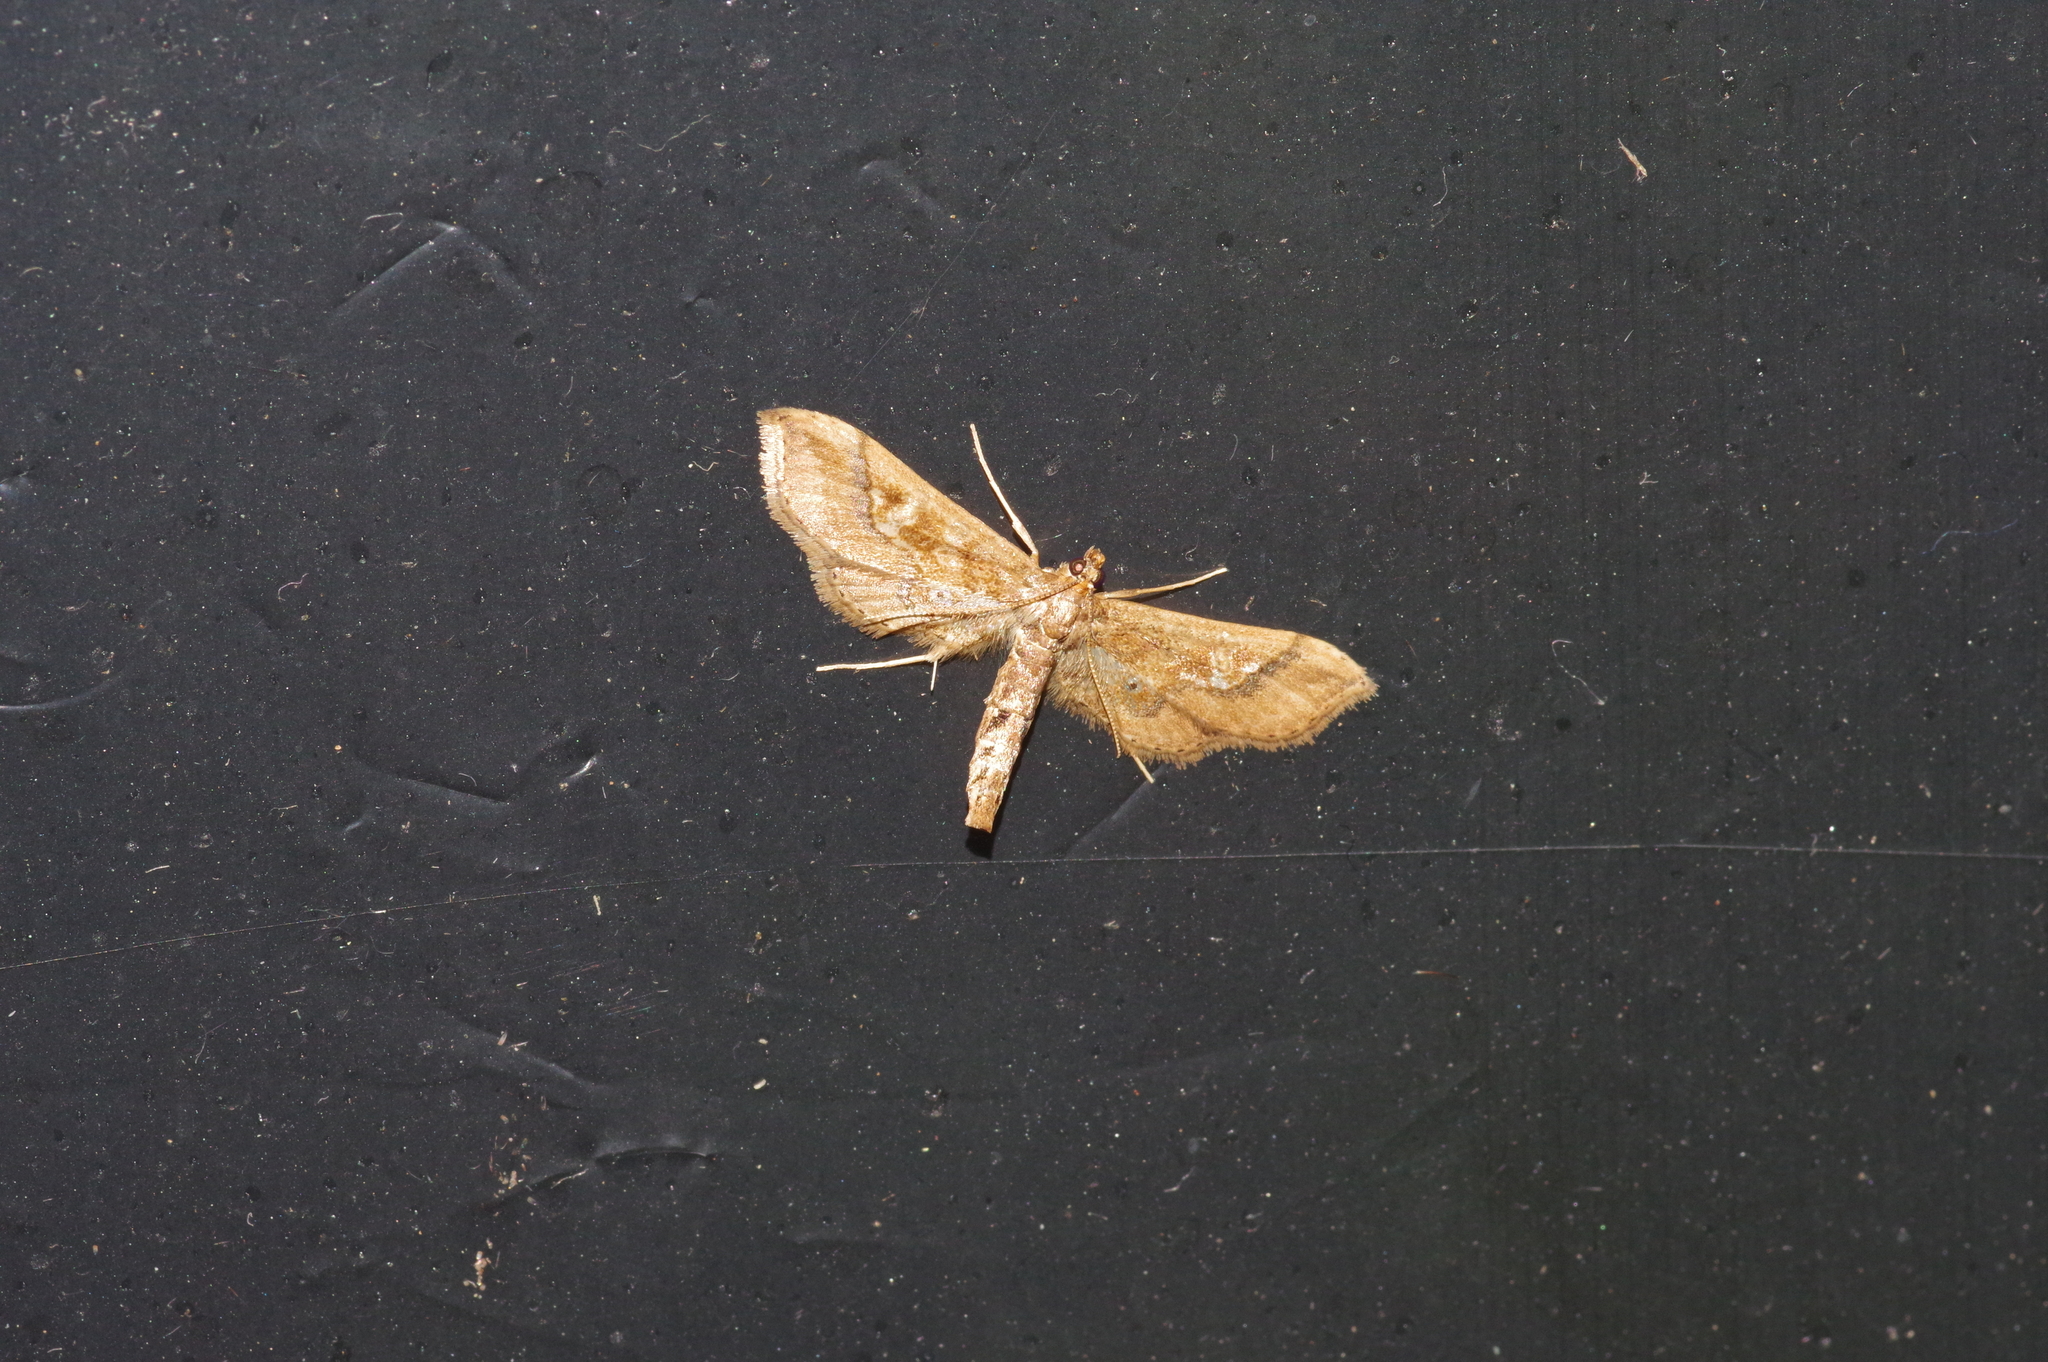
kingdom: Animalia
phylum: Arthropoda
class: Insecta
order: Lepidoptera
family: Crambidae
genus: Hydriris
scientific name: Hydriris ornatalis
